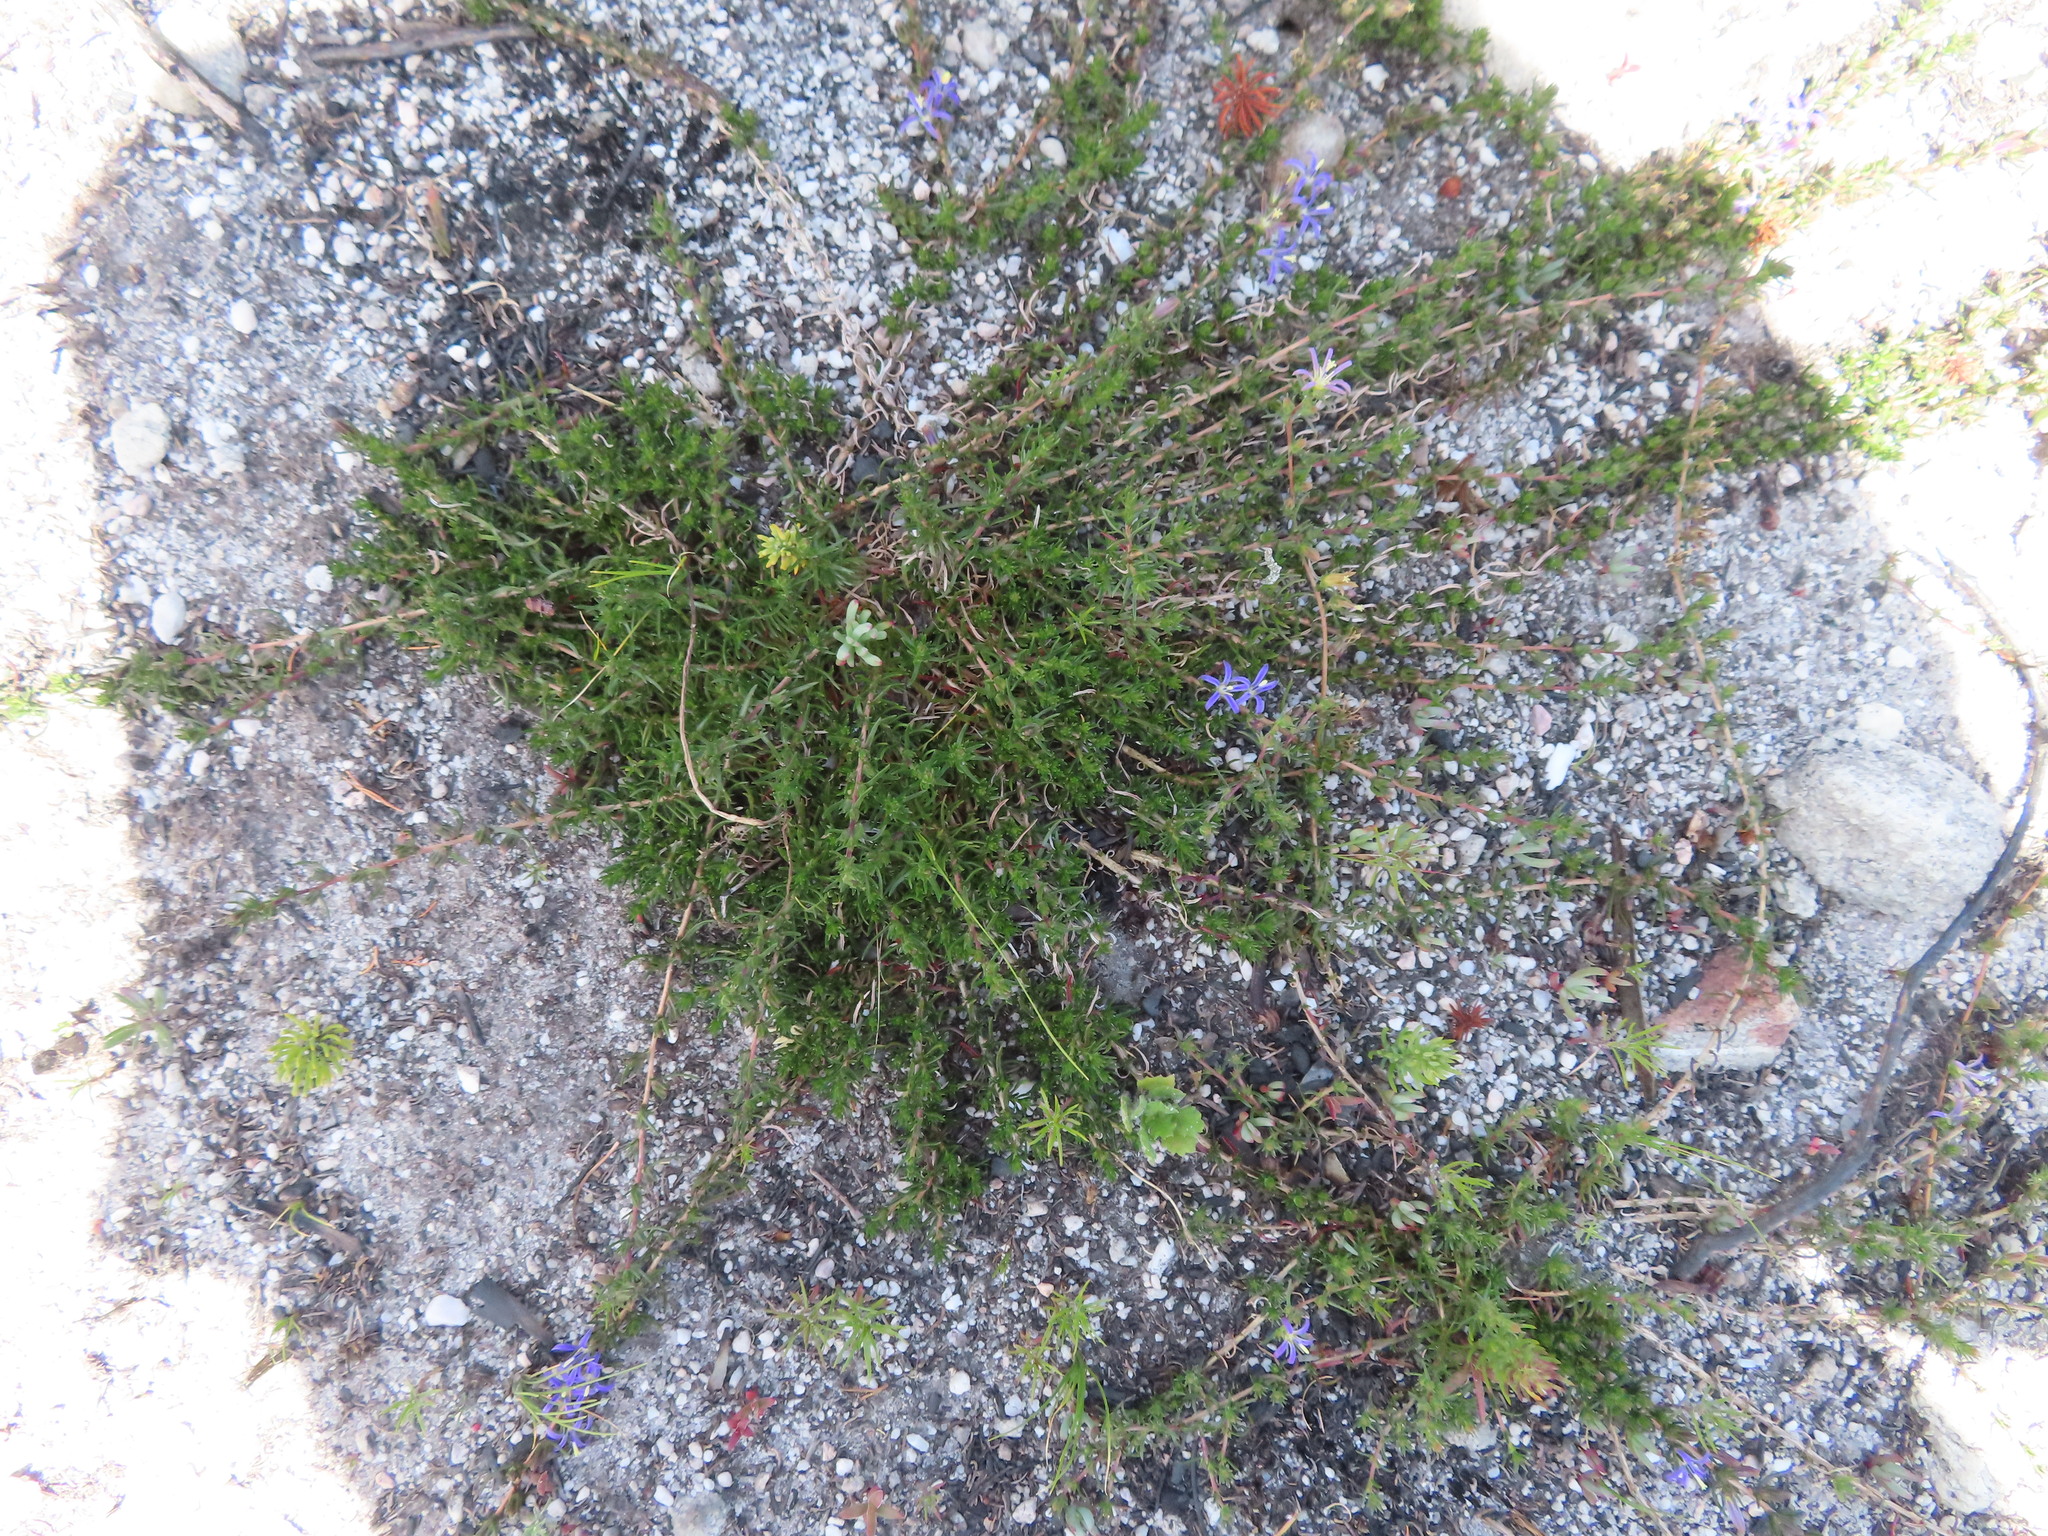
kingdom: Plantae
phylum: Tracheophyta
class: Magnoliopsida
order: Asterales
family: Campanulaceae
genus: Wahlenbergia
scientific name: Wahlenbergia subulata
